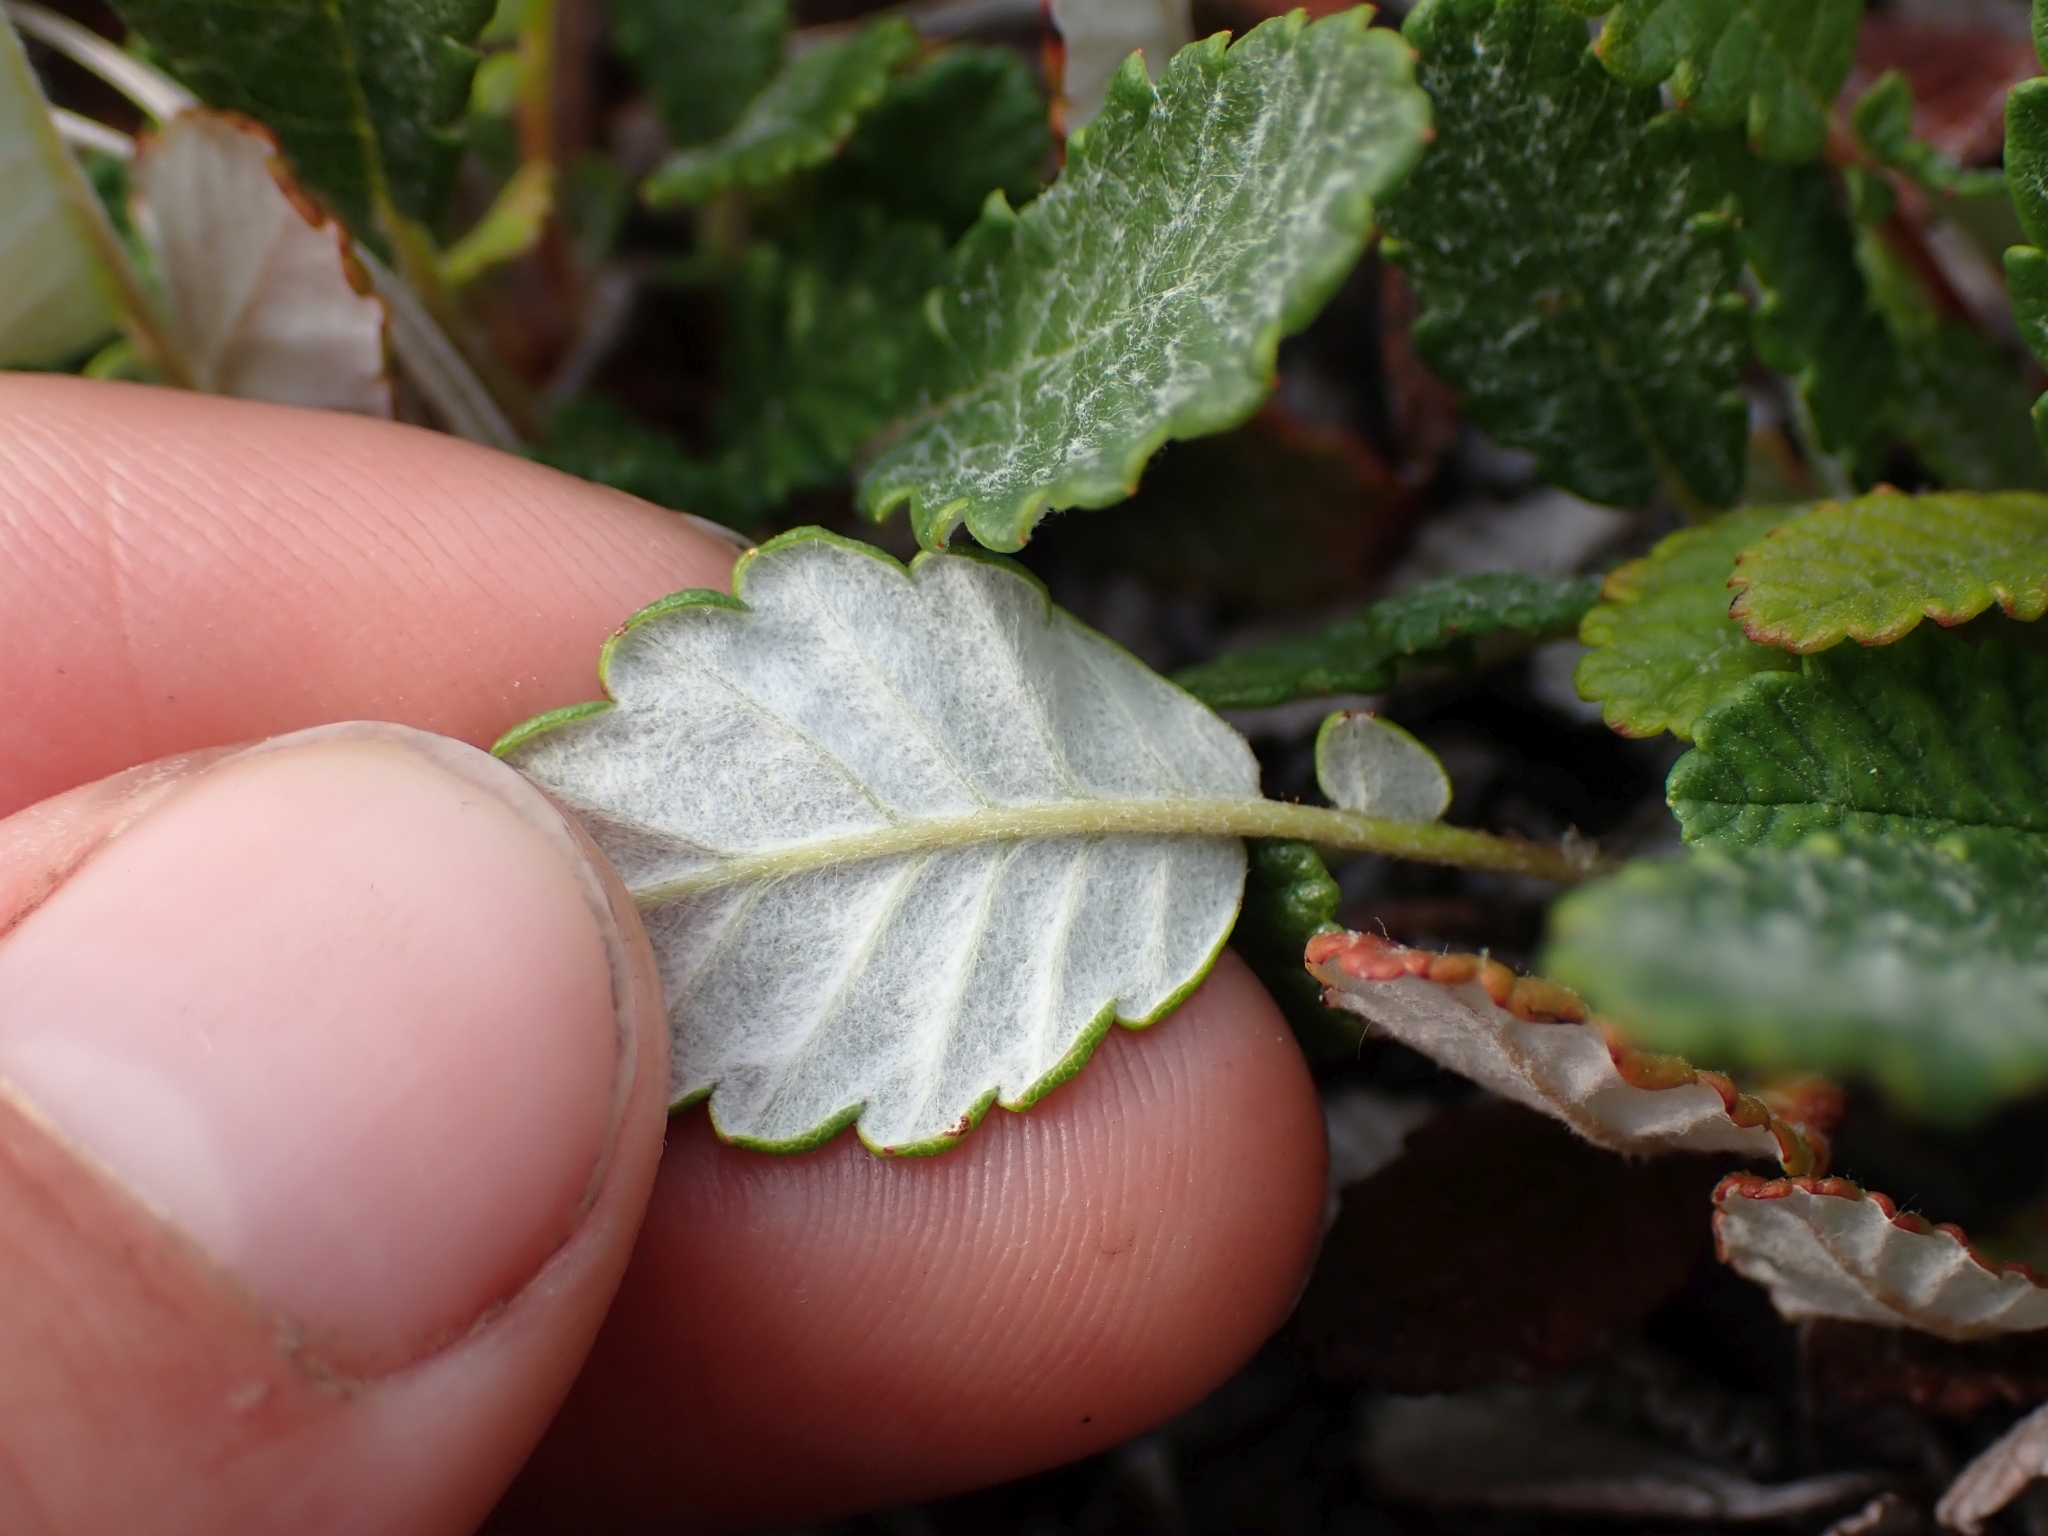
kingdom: Plantae
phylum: Tracheophyta
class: Magnoliopsida
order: Rosales
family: Rosaceae
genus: Dryas
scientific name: Dryas drummondii
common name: Drummond's dryad
